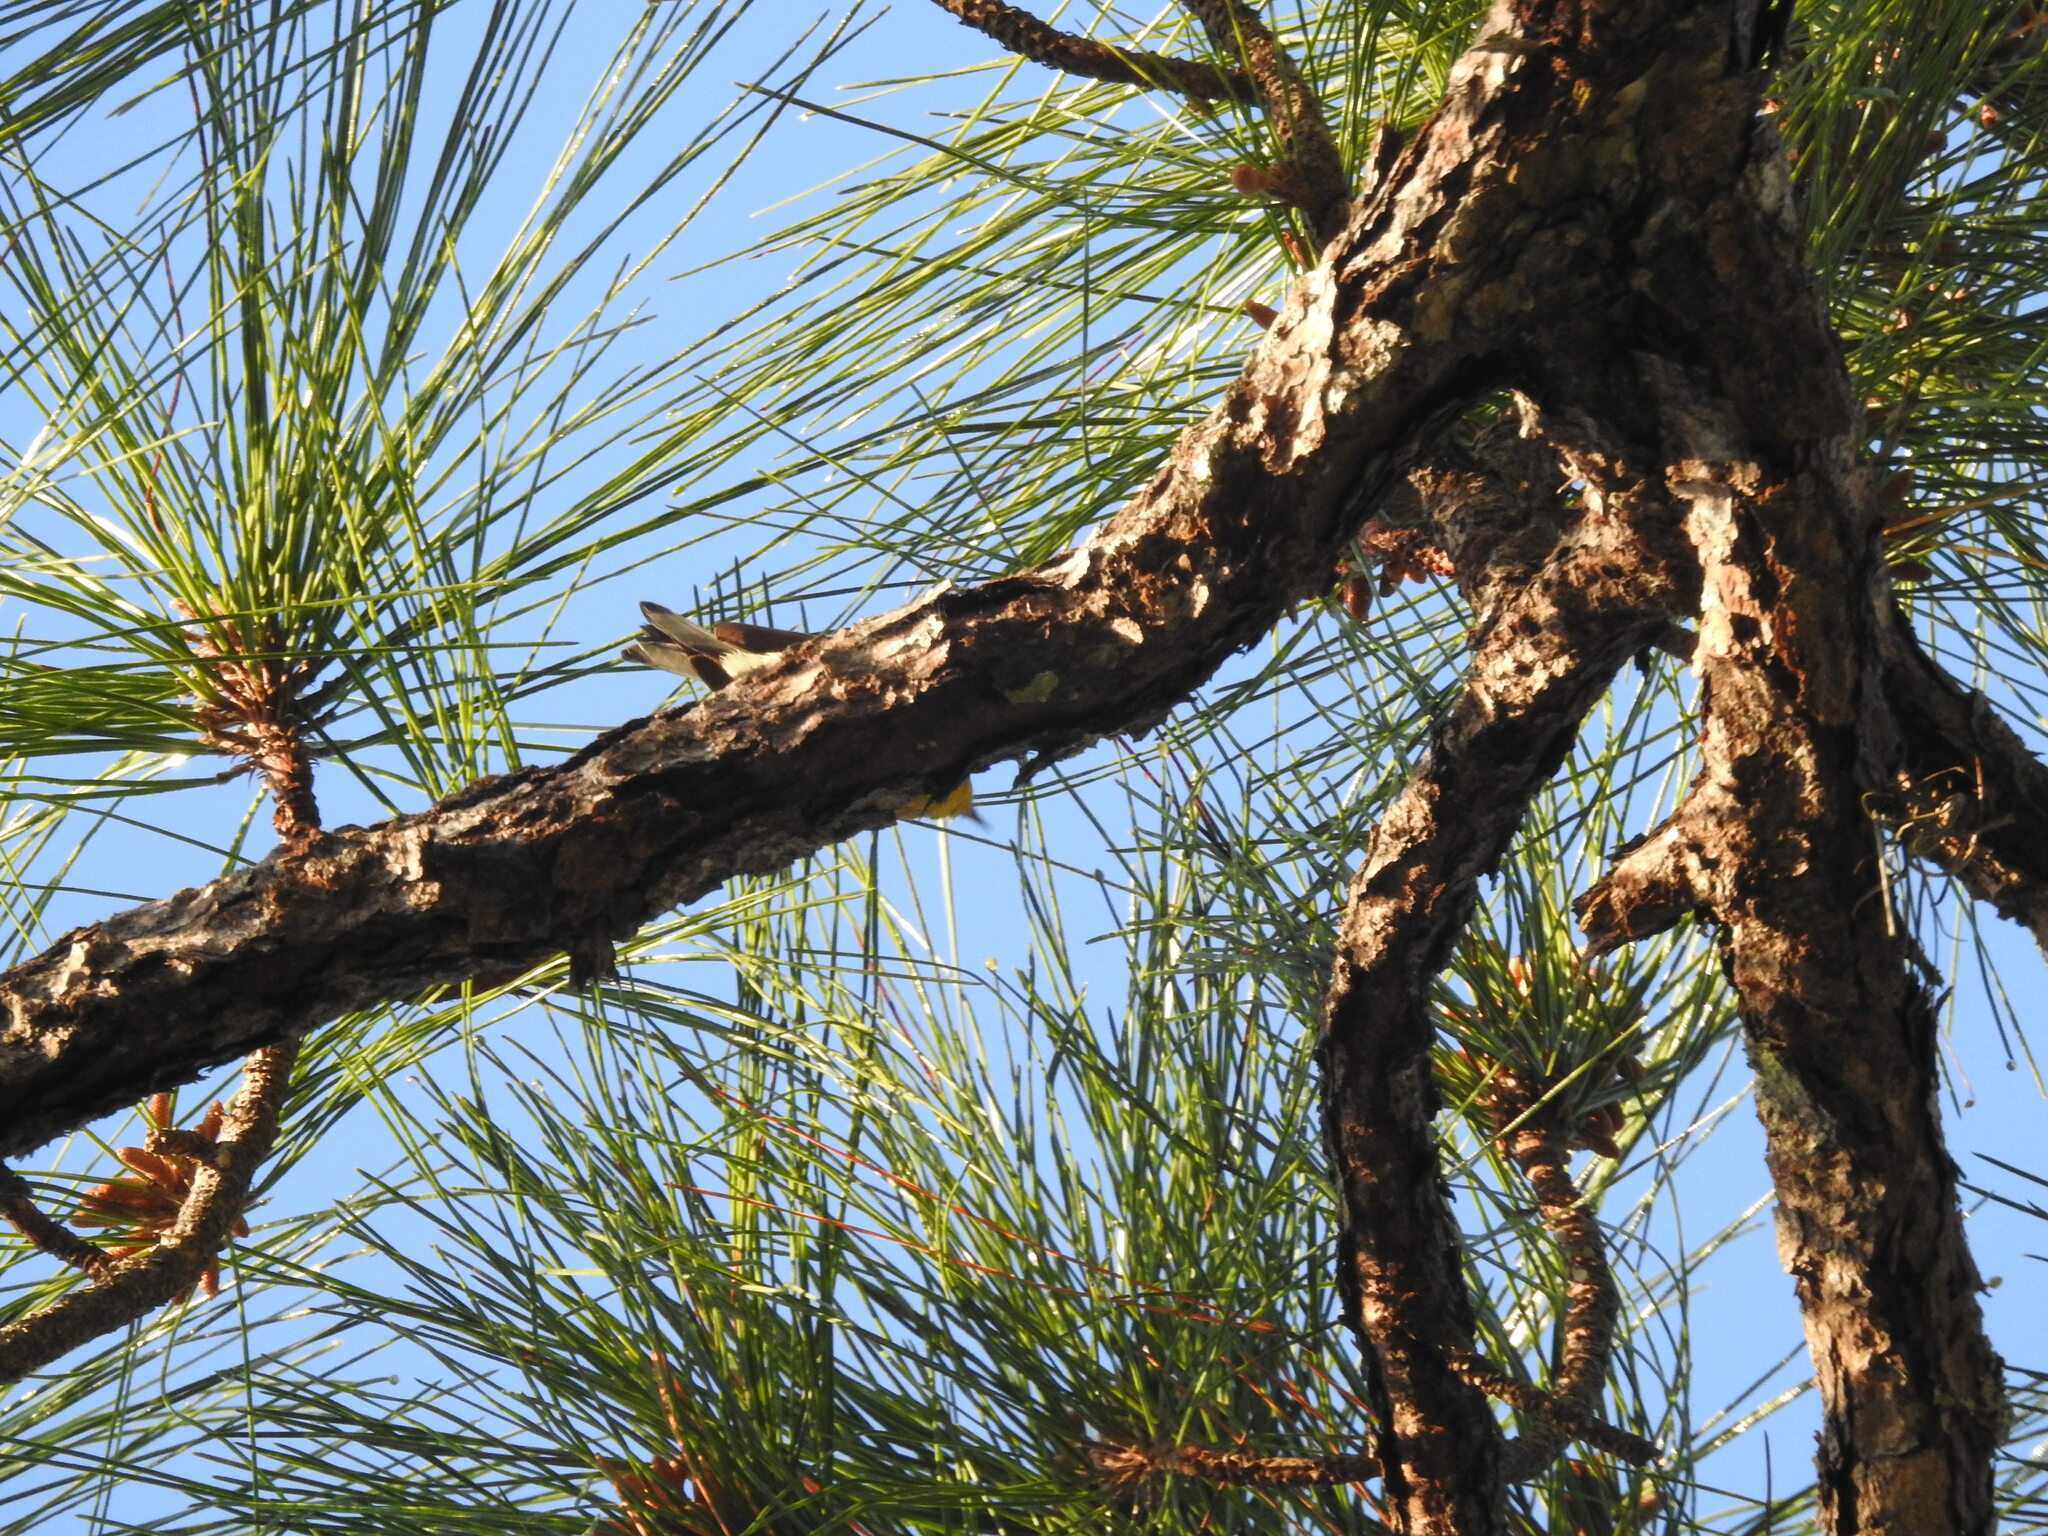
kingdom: Animalia
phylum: Chordata
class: Aves
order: Passeriformes
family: Parulidae
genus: Setophaga
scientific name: Setophaga pinus
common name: Pine warbler
